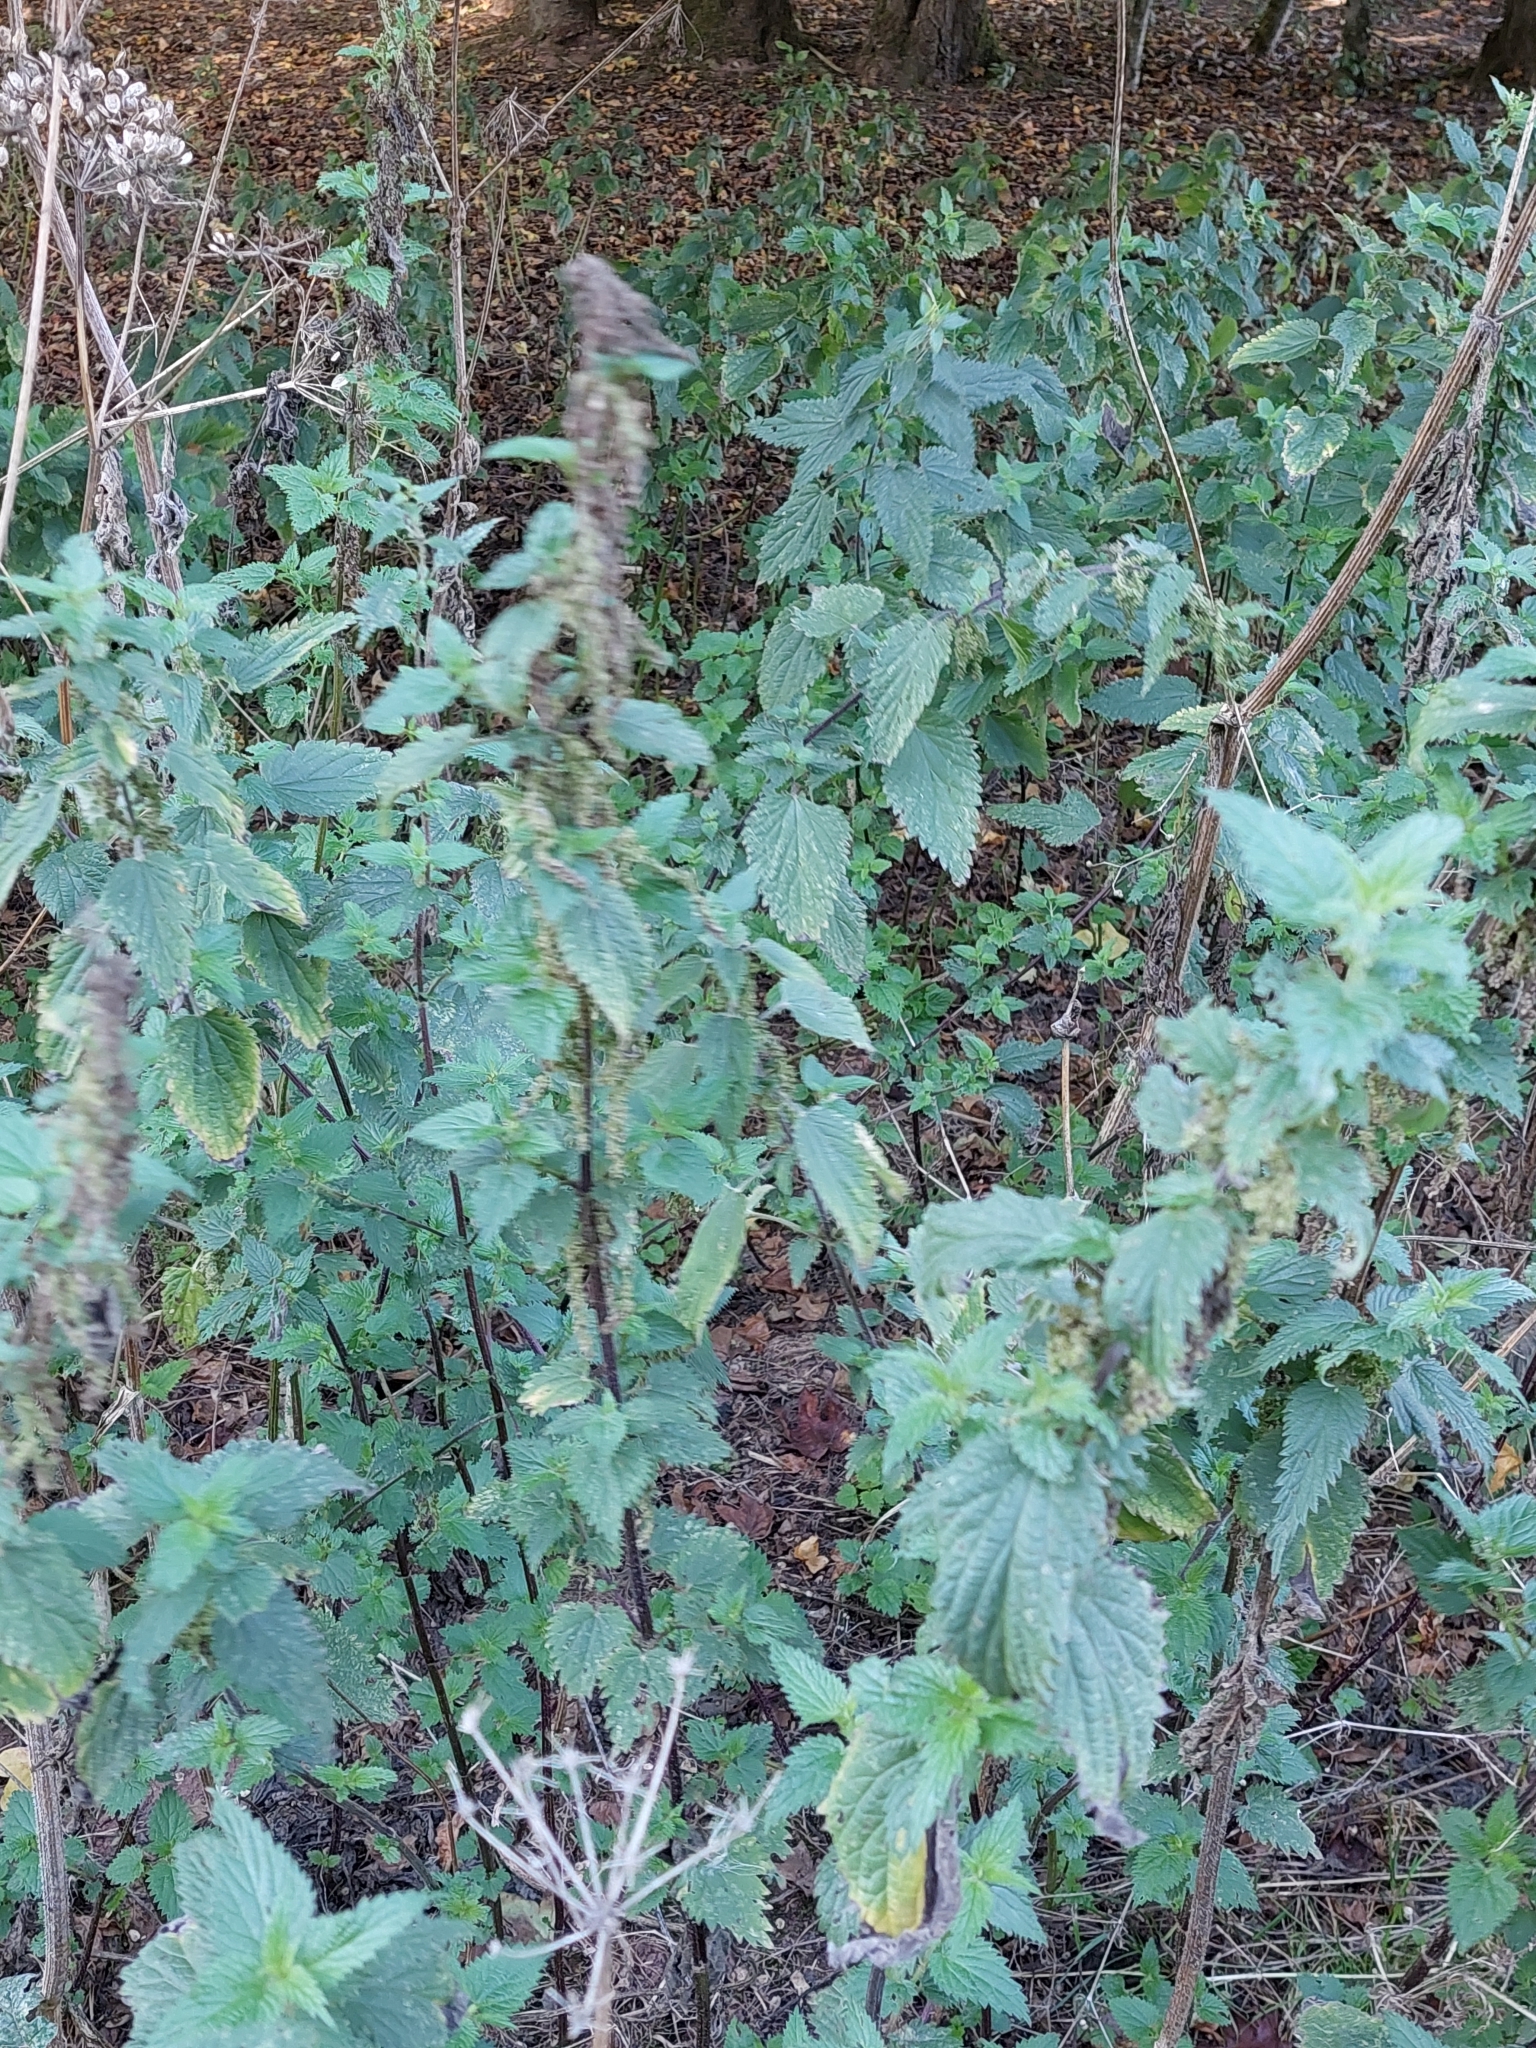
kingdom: Plantae
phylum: Tracheophyta
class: Magnoliopsida
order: Rosales
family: Urticaceae
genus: Urtica
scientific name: Urtica dioica
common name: Common nettle
